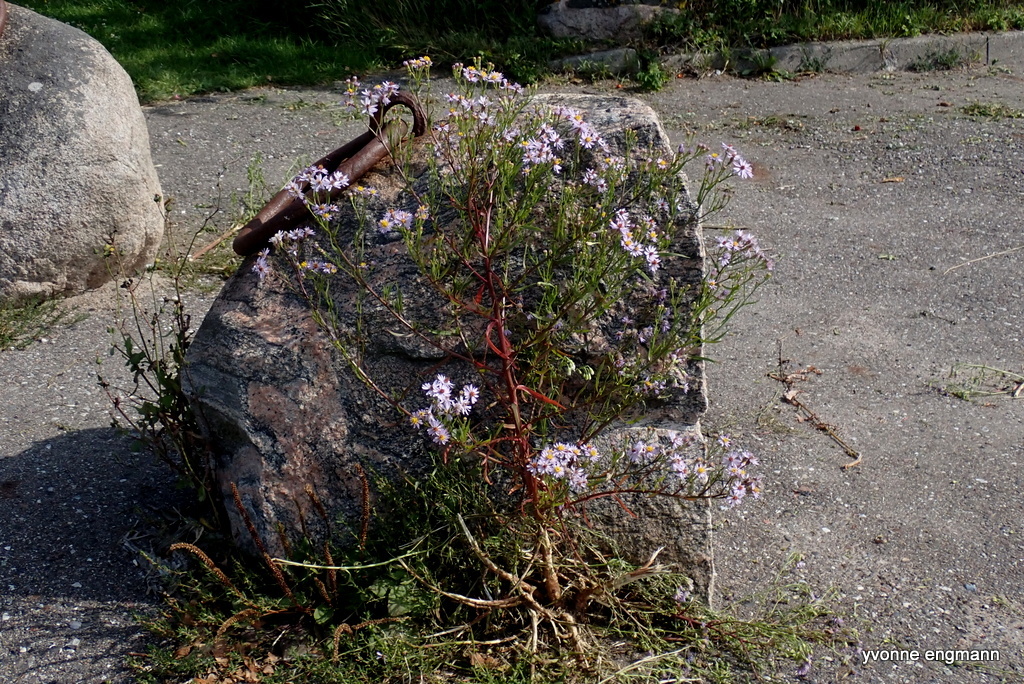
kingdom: Plantae
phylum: Tracheophyta
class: Magnoliopsida
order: Asterales
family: Asteraceae
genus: Tripolium
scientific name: Tripolium pannonicum
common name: Sea aster
